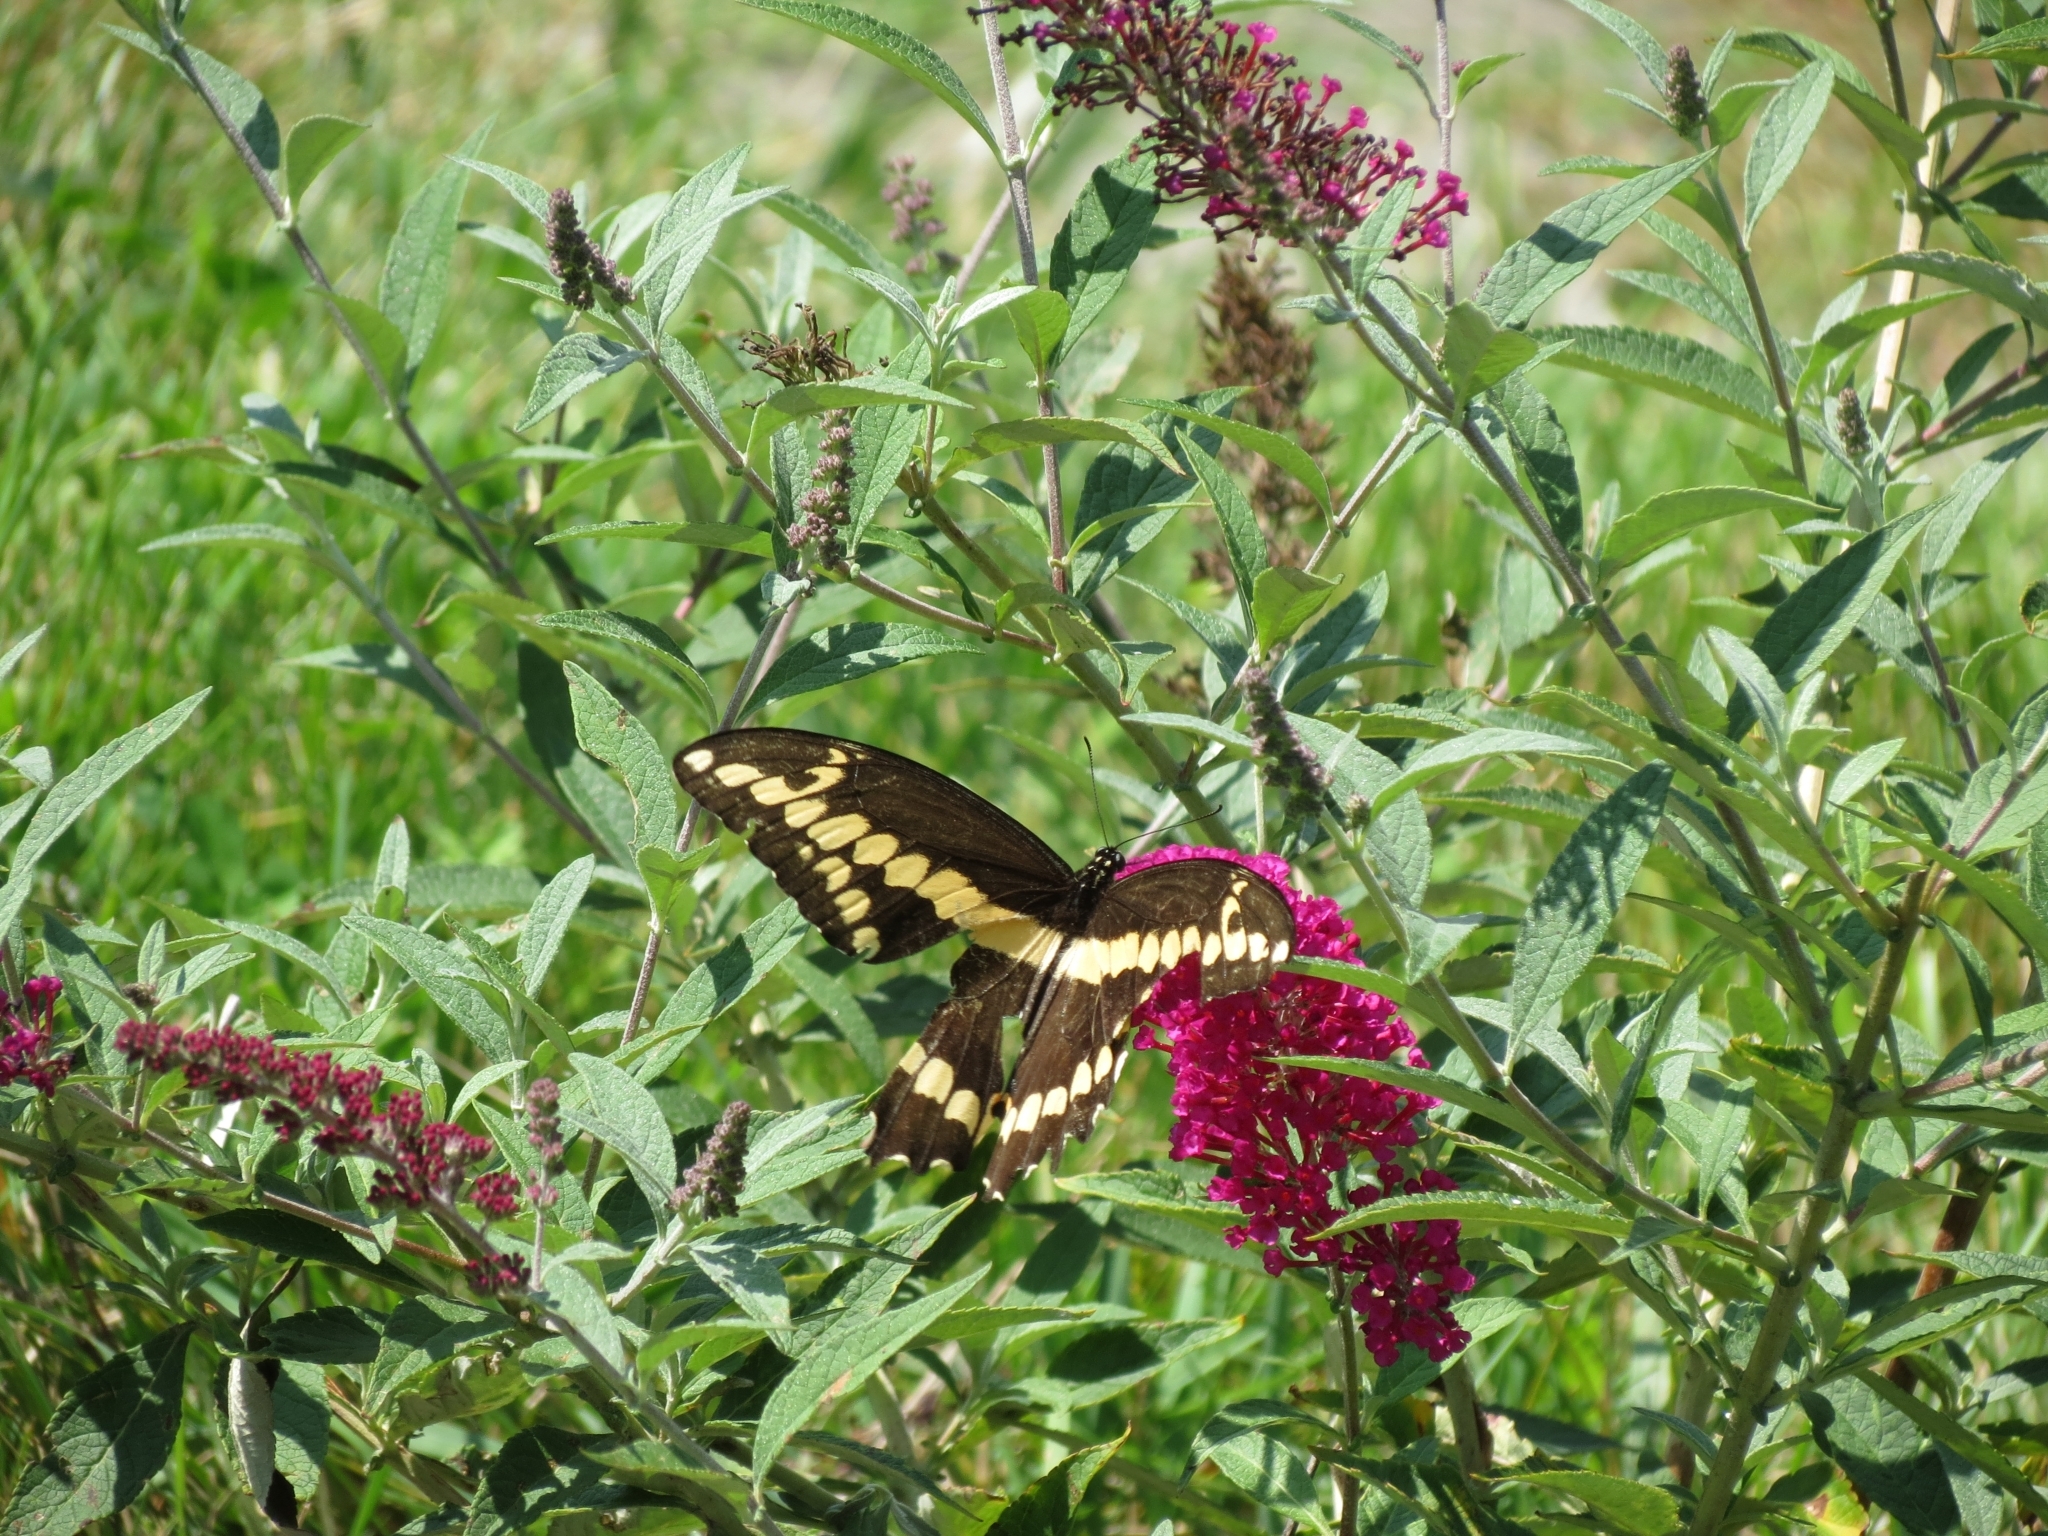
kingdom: Animalia
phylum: Arthropoda
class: Insecta
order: Lepidoptera
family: Papilionidae
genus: Papilio
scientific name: Papilio cresphontes
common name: Giant swallowtail
